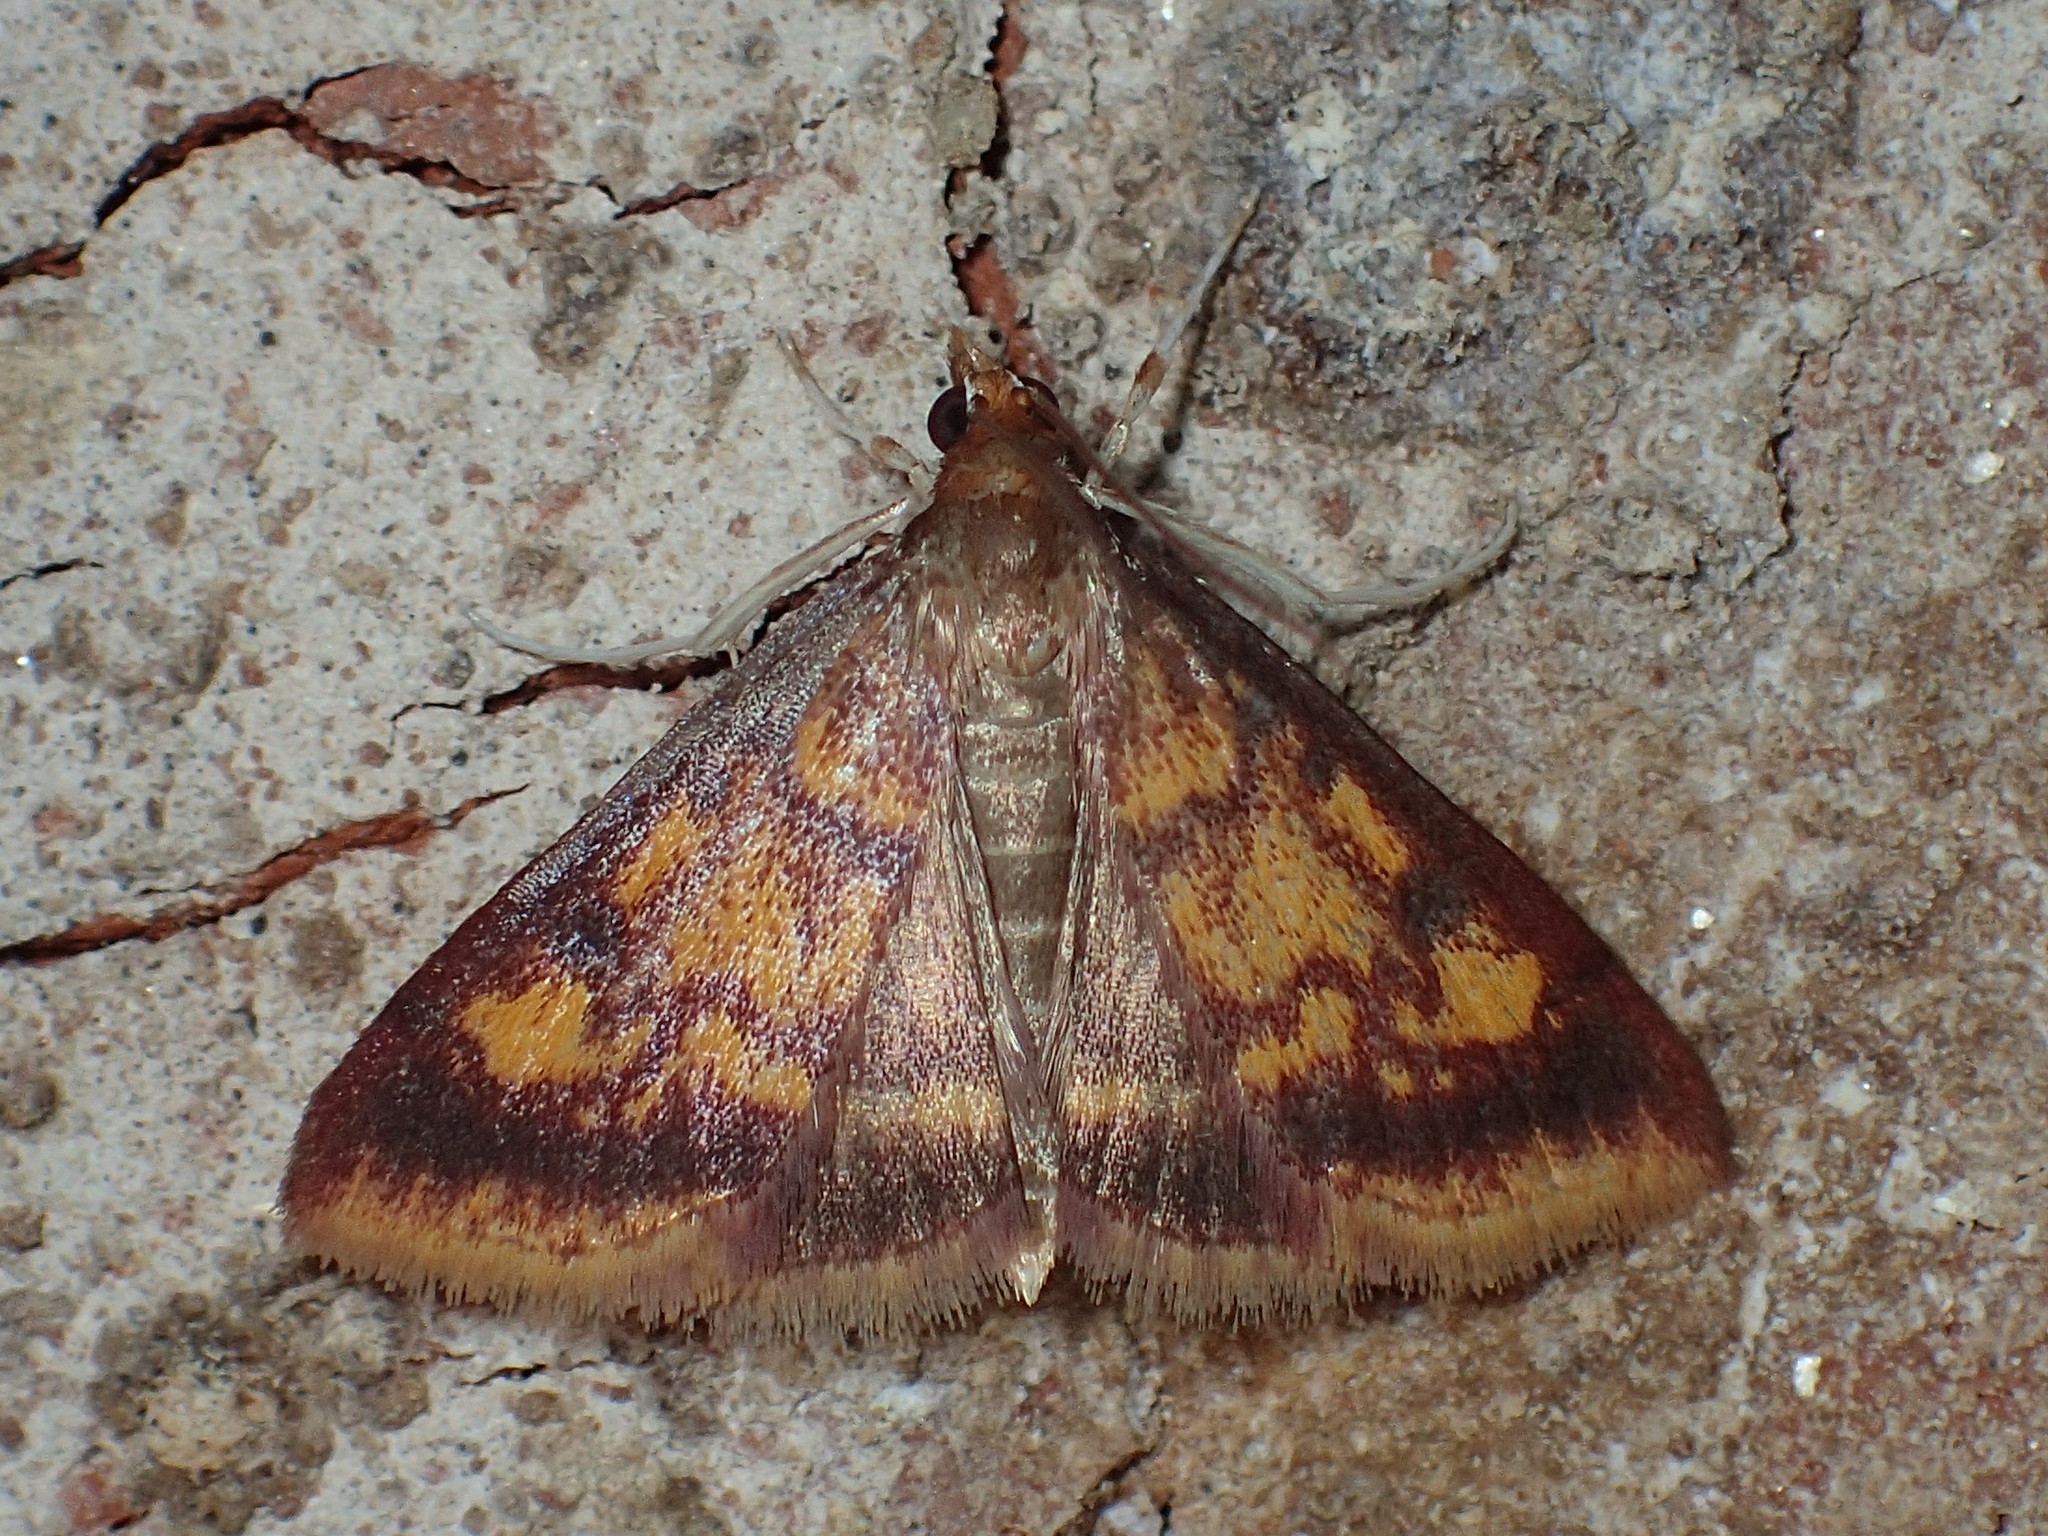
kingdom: Animalia
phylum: Arthropoda
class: Insecta
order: Lepidoptera
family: Crambidae
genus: Pyrausta
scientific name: Pyrausta acrionalis
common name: Mint-loving pyrausta moth
